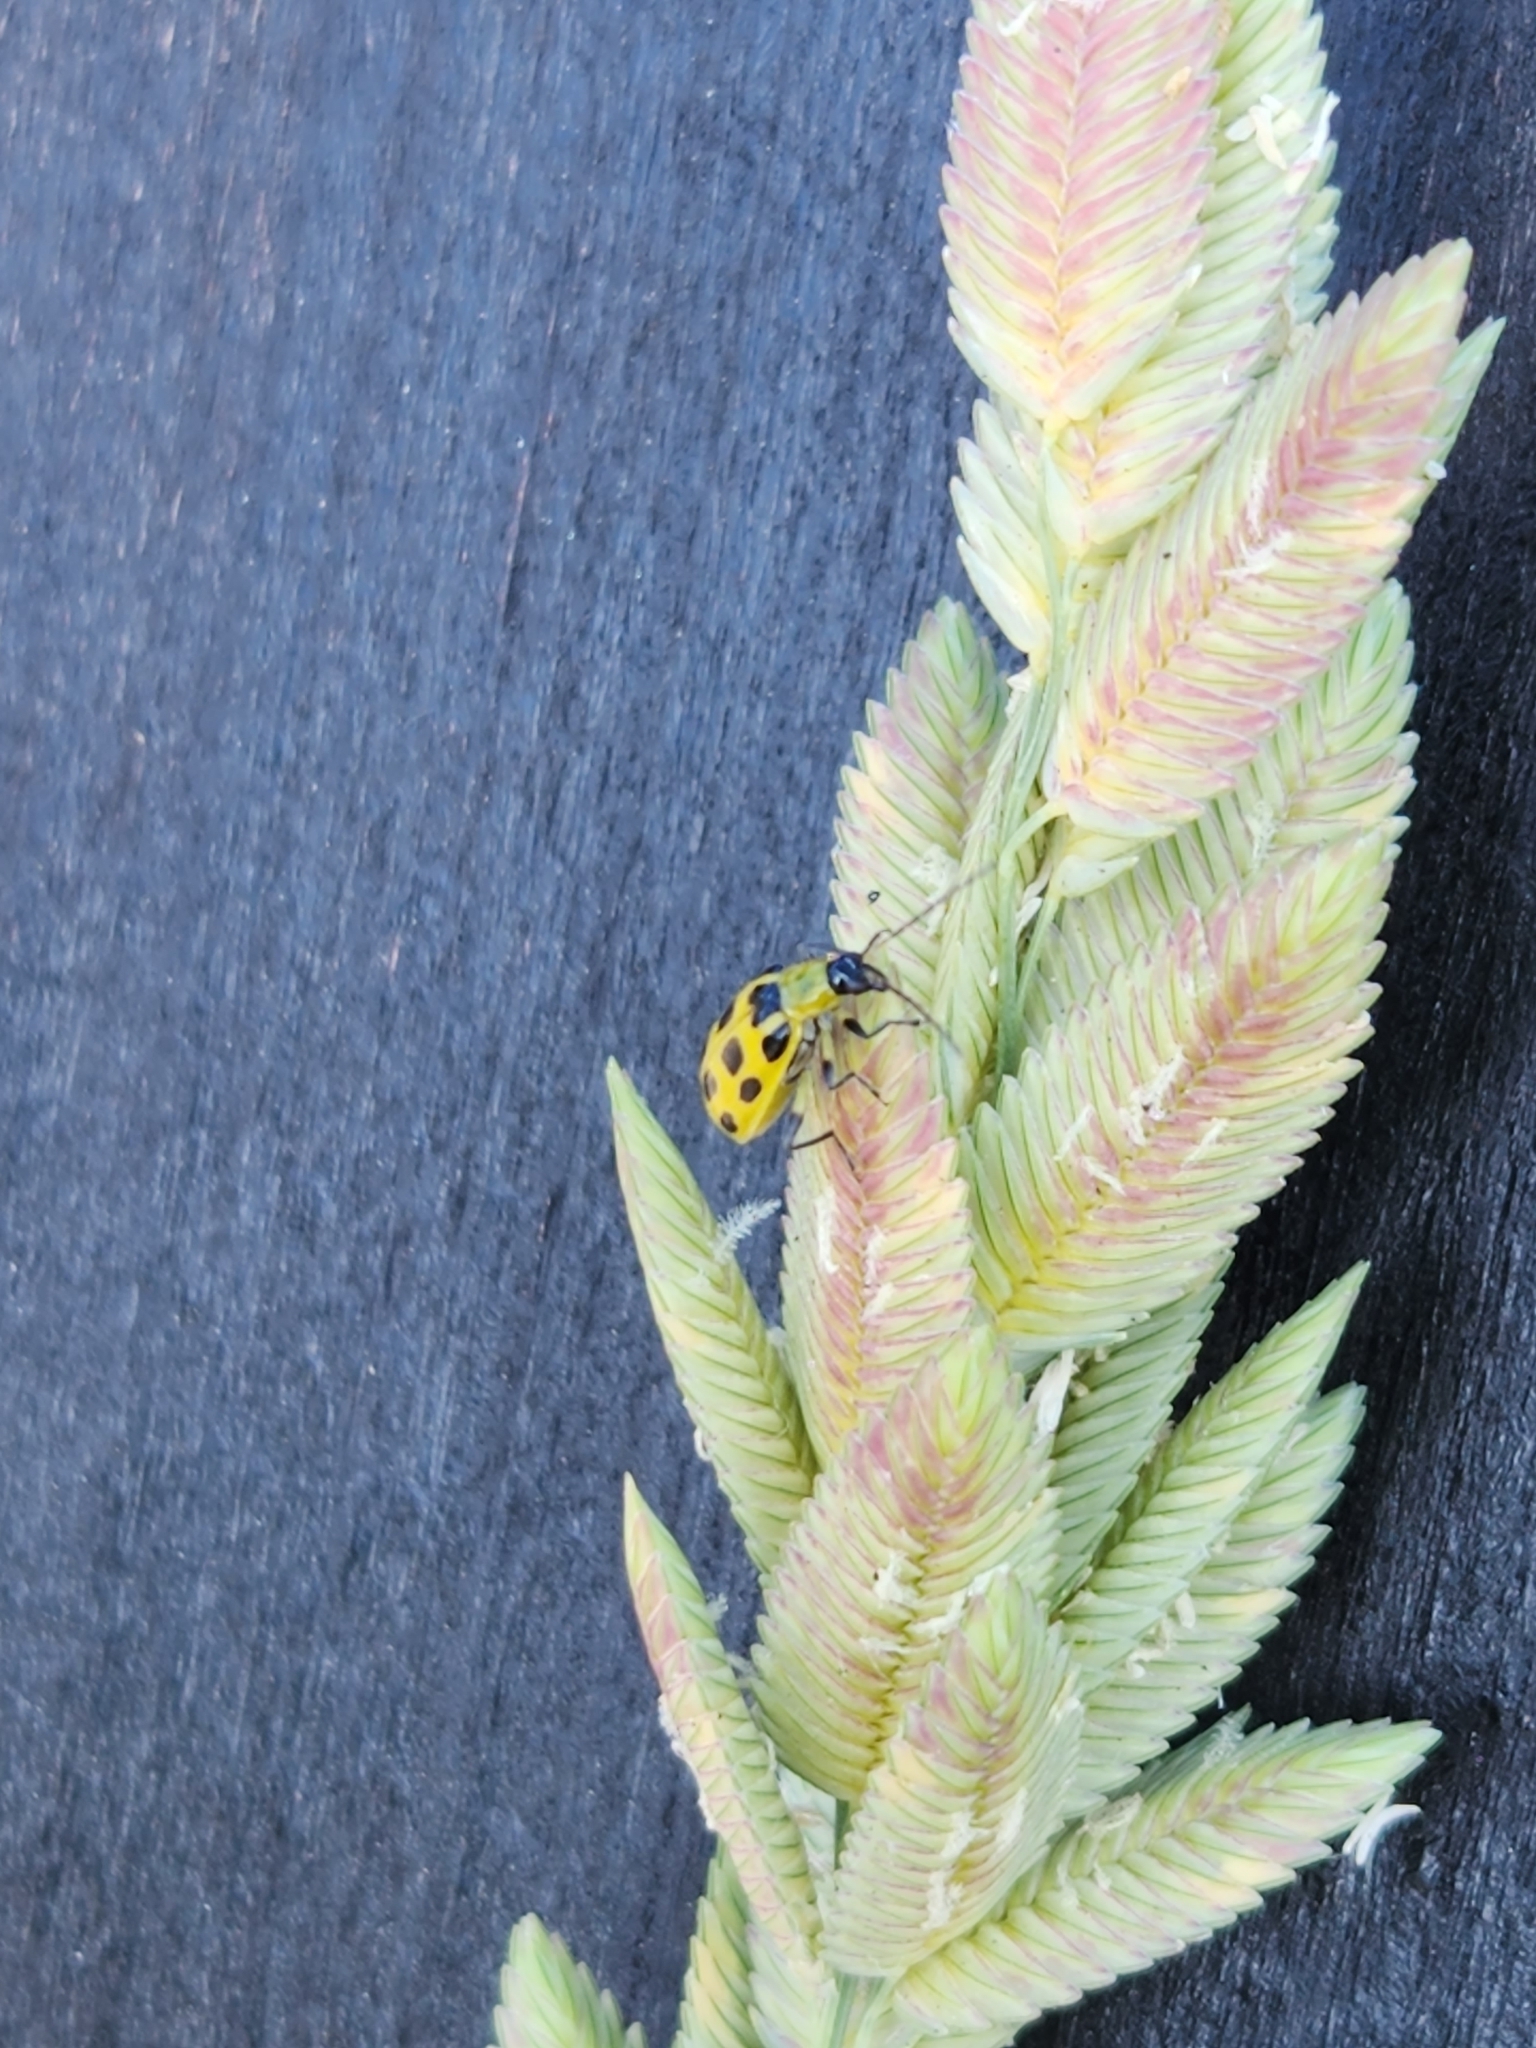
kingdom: Animalia
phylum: Arthropoda
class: Insecta
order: Coleoptera
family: Chrysomelidae
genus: Diabrotica
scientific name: Diabrotica undecimpunctata
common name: Spotted cucumber beetle
